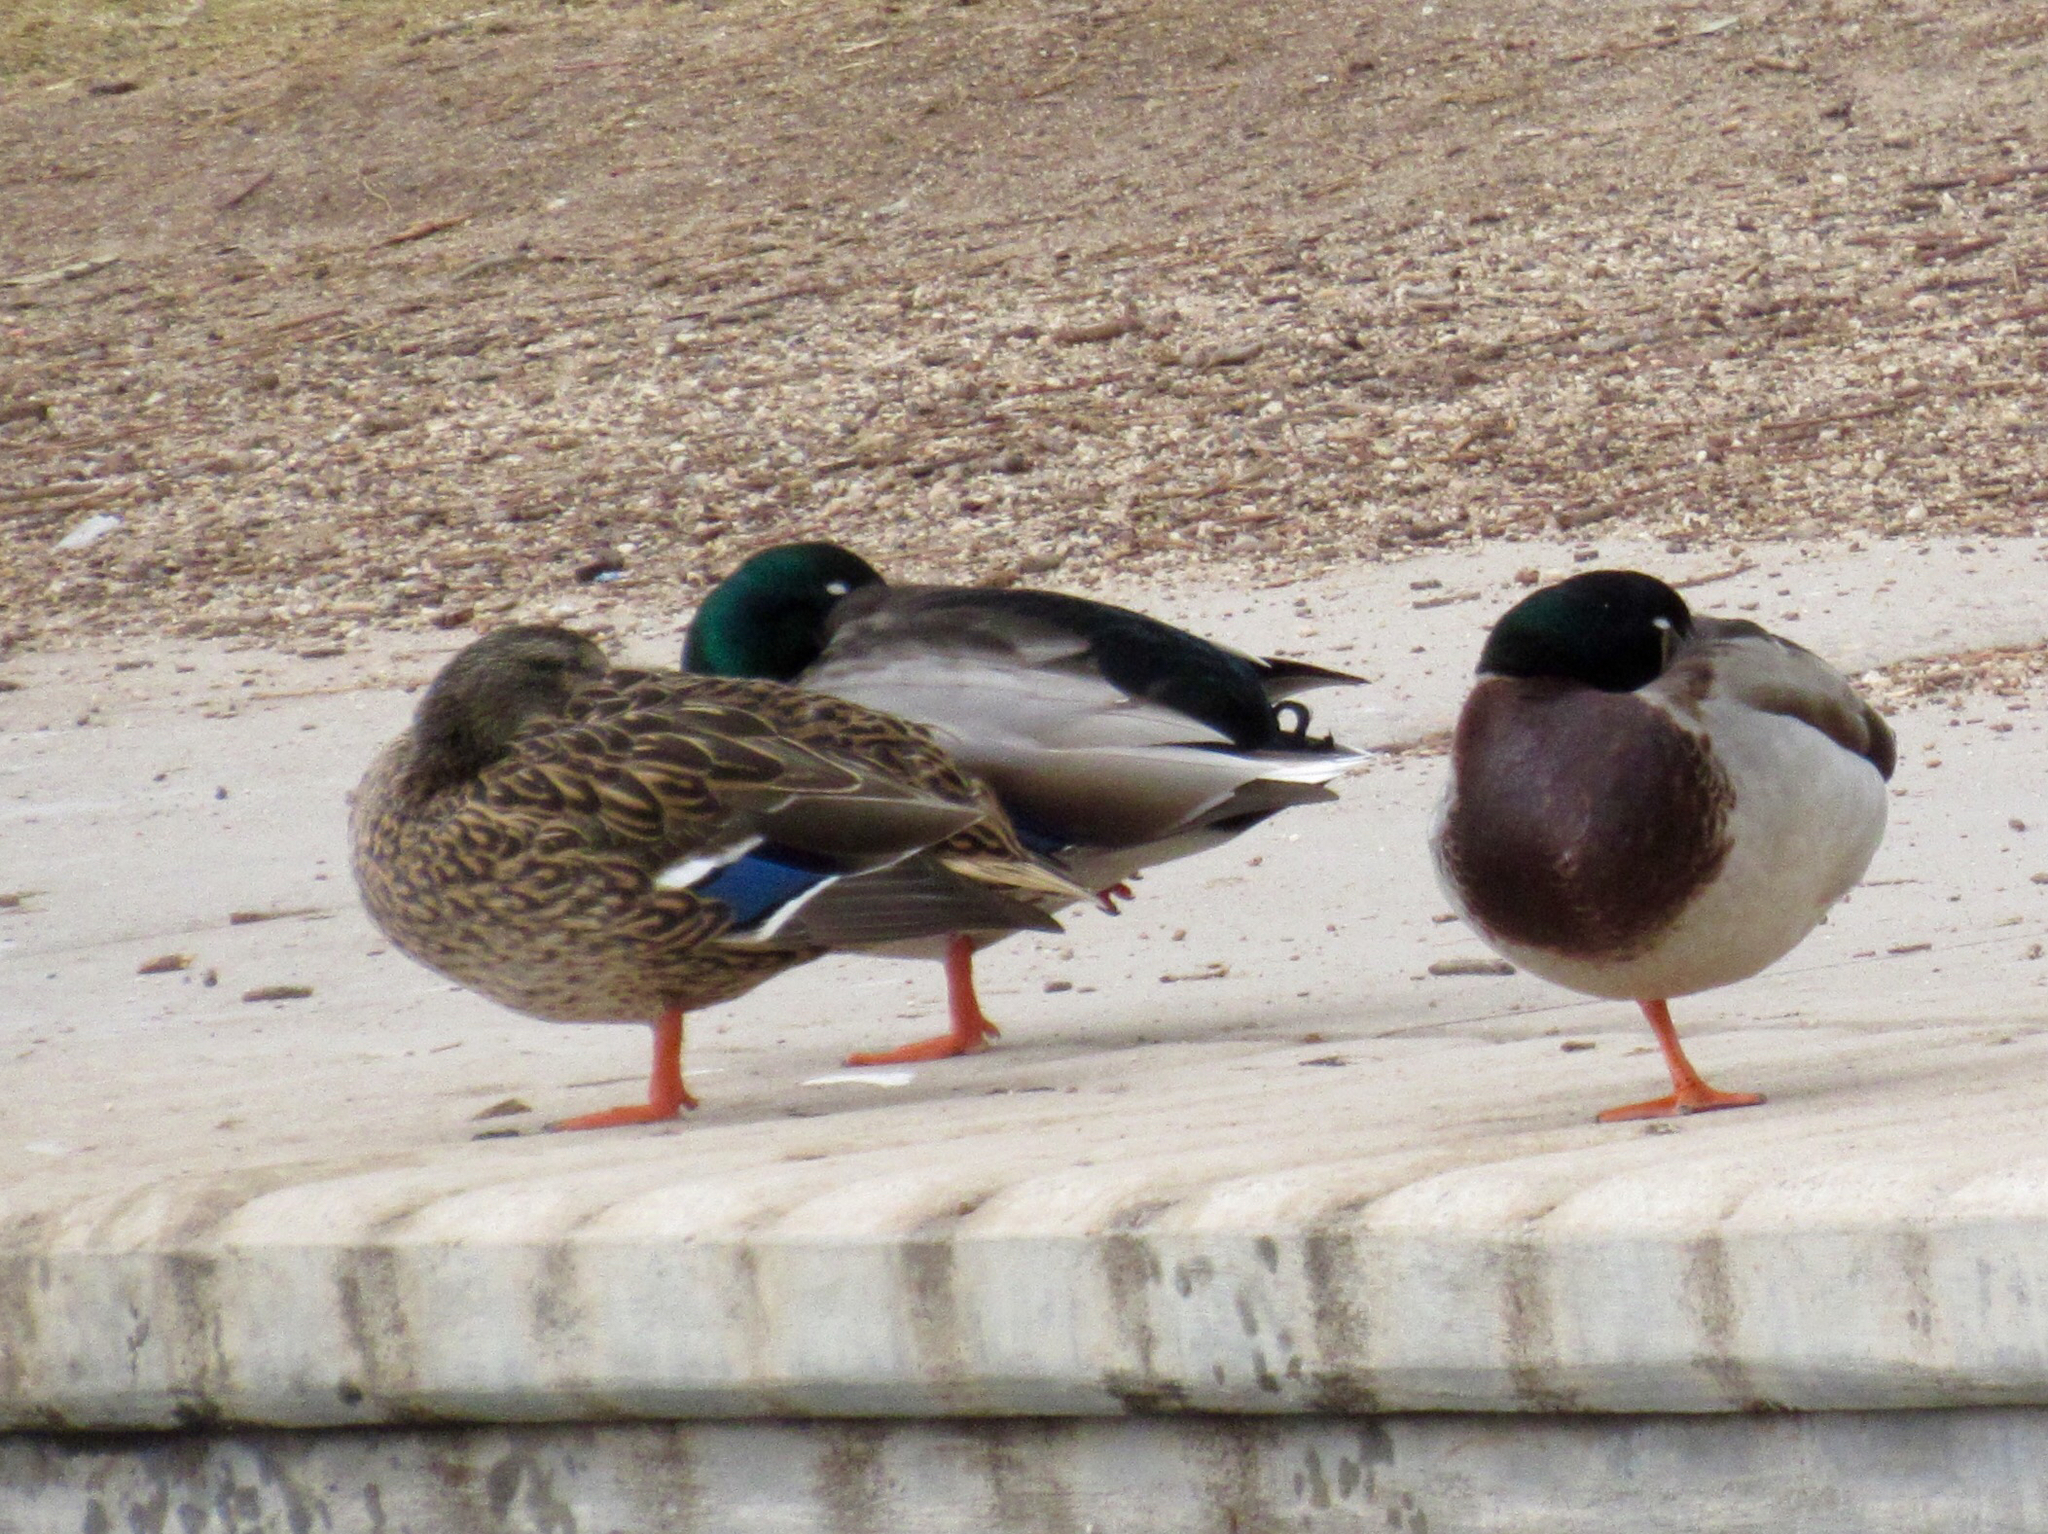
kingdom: Animalia
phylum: Chordata
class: Aves
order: Anseriformes
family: Anatidae
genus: Anas
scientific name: Anas platyrhynchos
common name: Mallard
